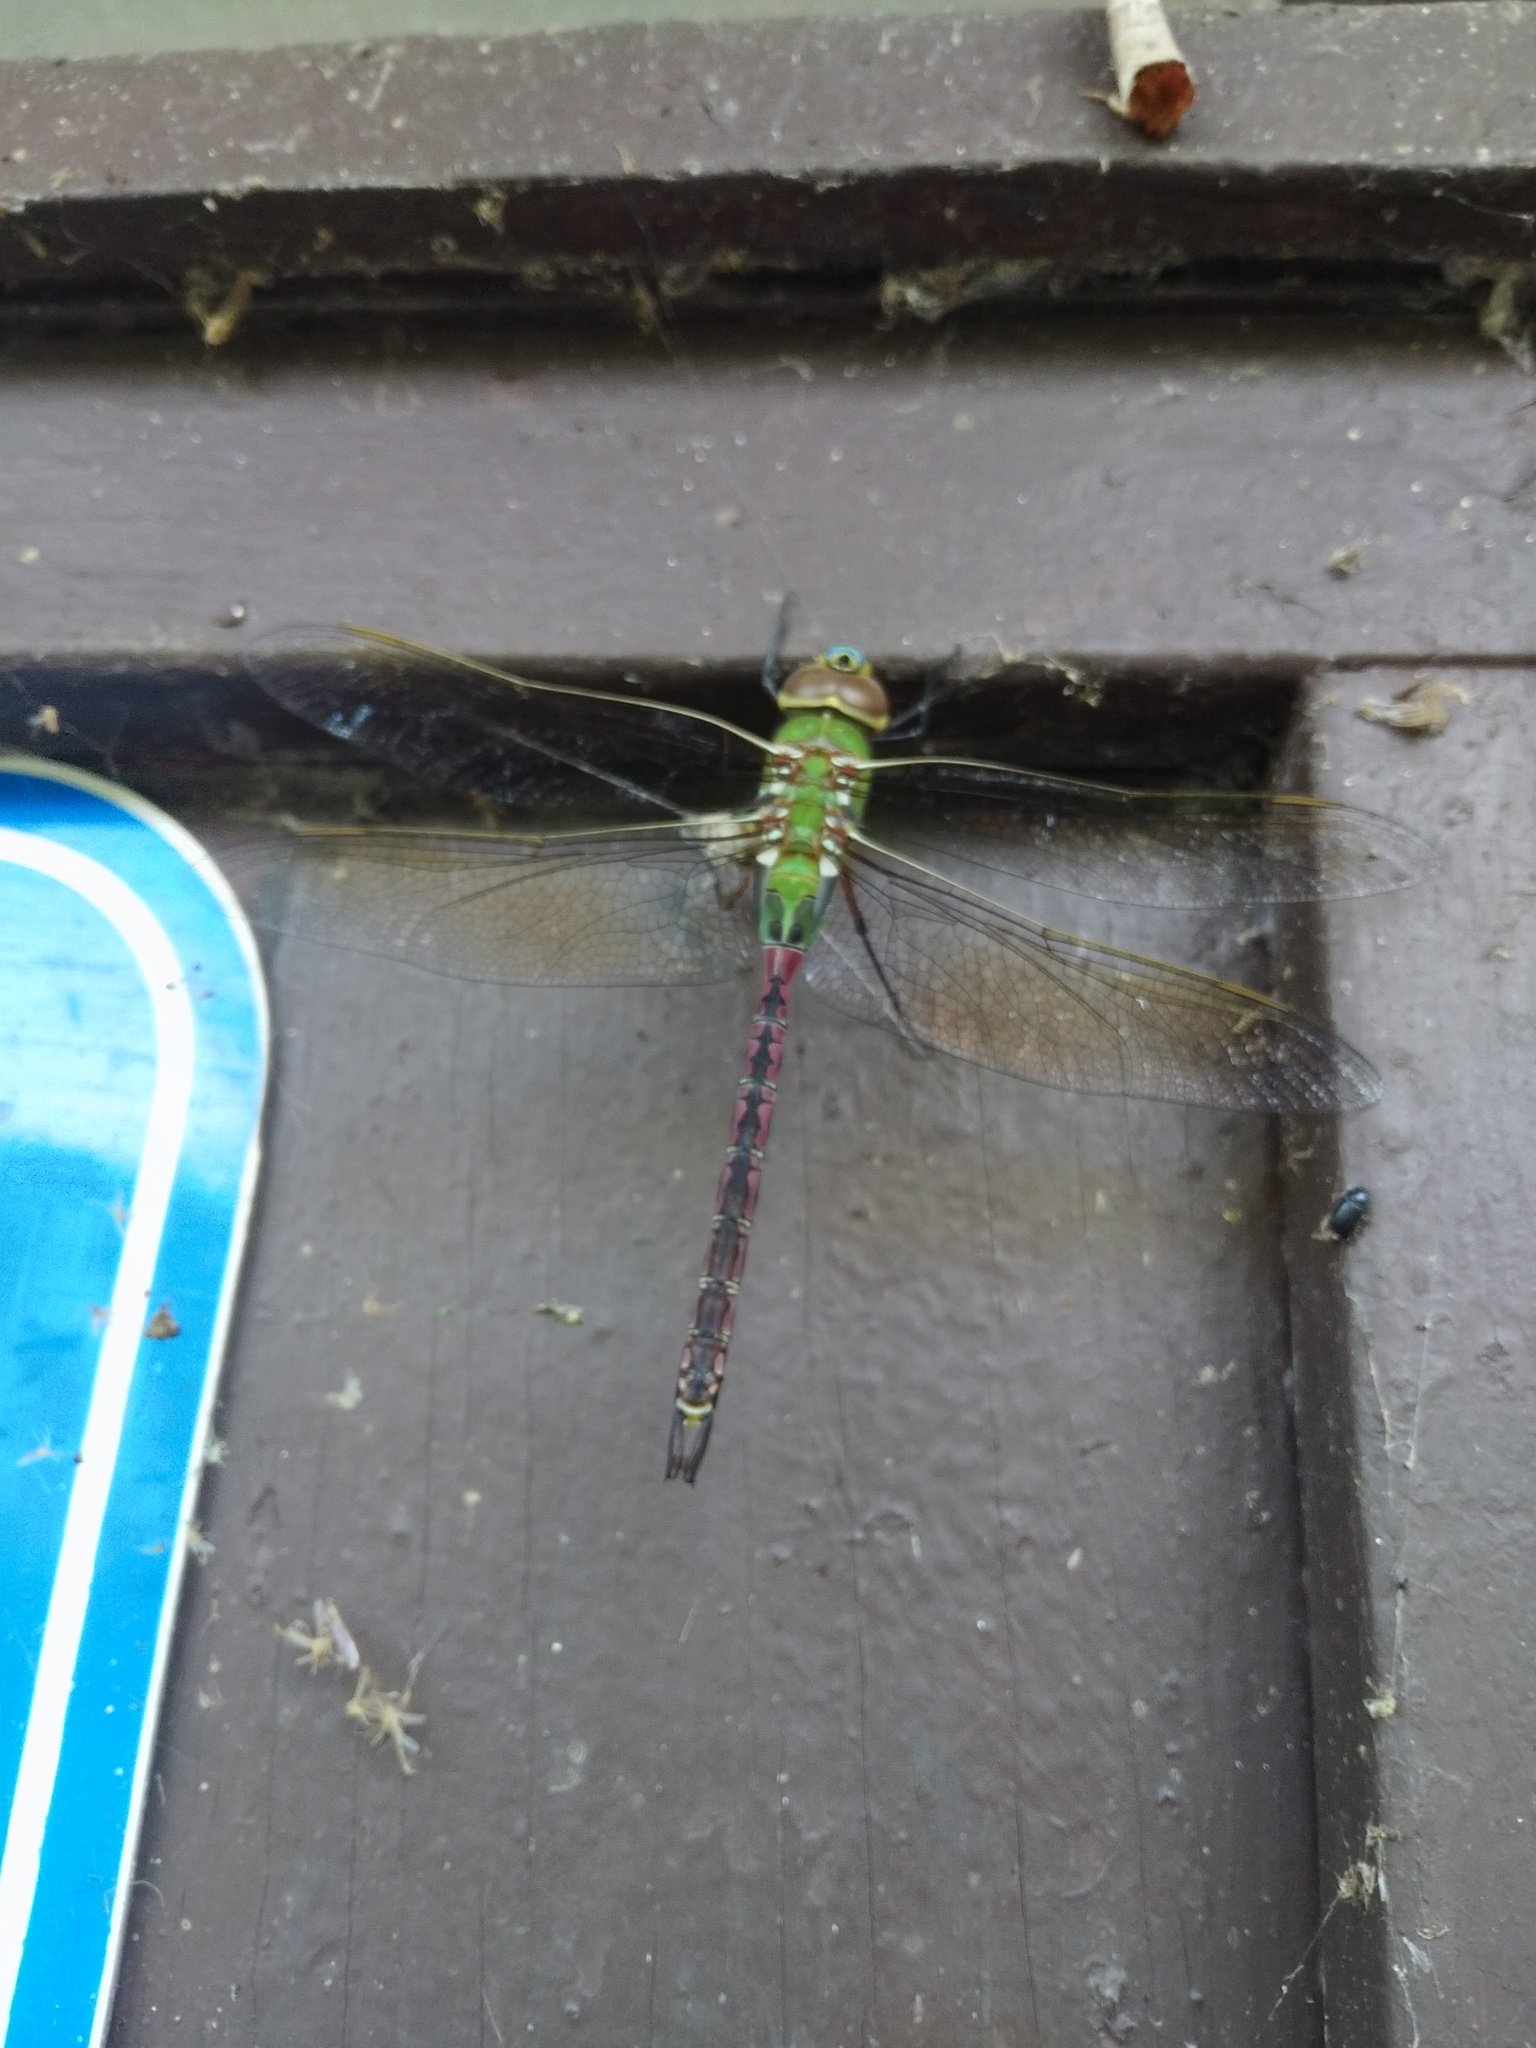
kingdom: Animalia
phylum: Arthropoda
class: Insecta
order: Odonata
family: Aeshnidae
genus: Anax
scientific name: Anax junius
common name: Common green darner
